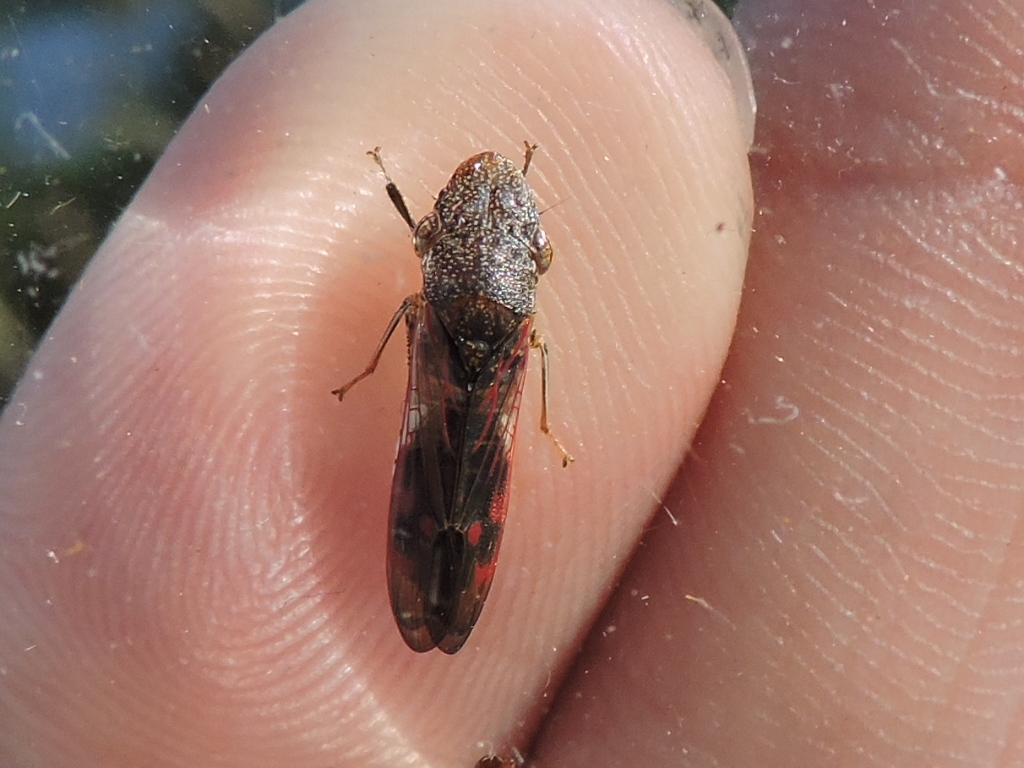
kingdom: Animalia
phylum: Arthropoda
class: Insecta
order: Hemiptera
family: Cicadellidae
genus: Homalodisca
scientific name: Homalodisca vitripennis
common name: Glassy-winged sharpshooter
